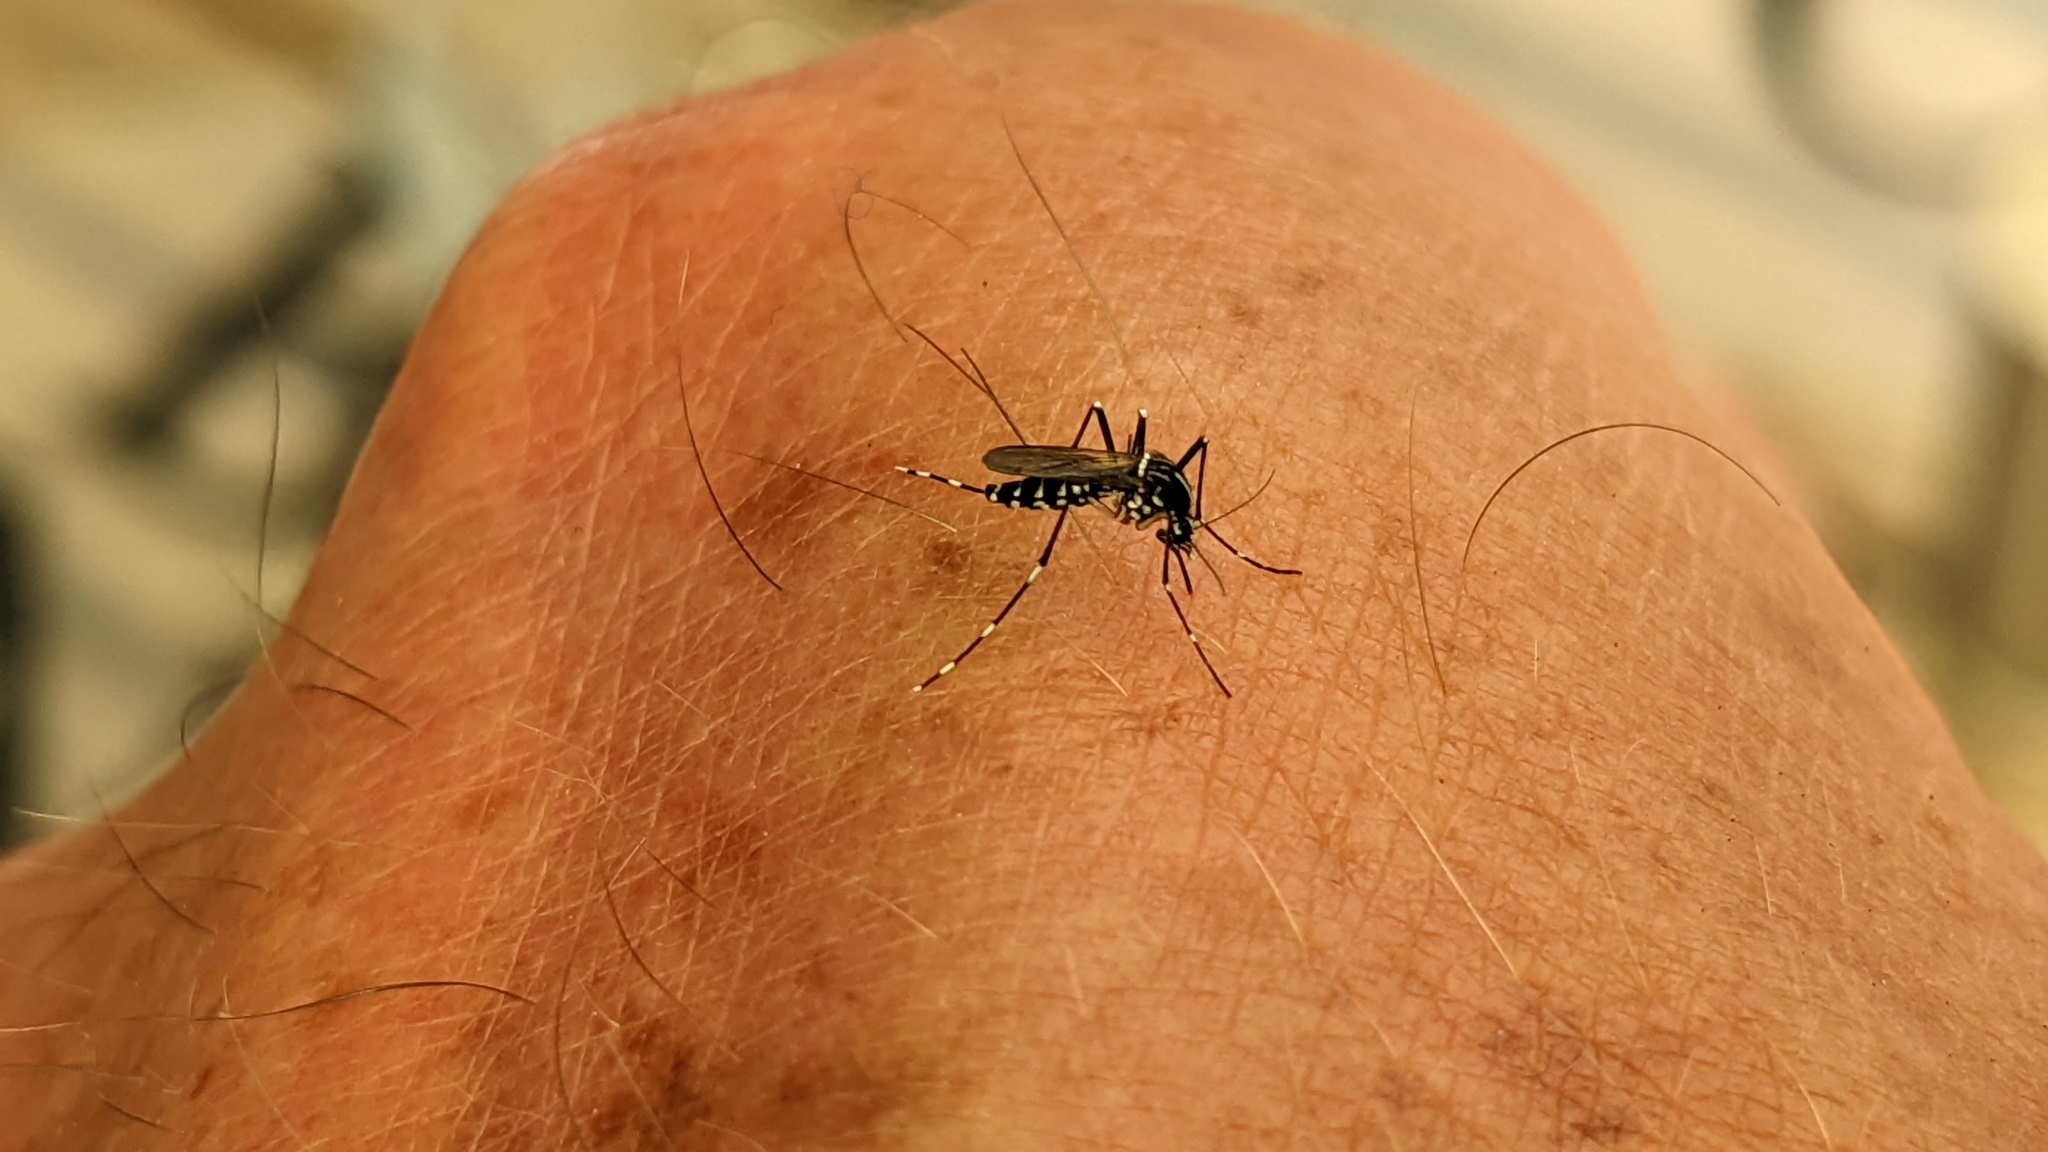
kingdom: Animalia
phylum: Arthropoda
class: Insecta
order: Diptera
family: Culicidae
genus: Aedes
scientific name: Aedes albopictus
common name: Tiger mosquito
